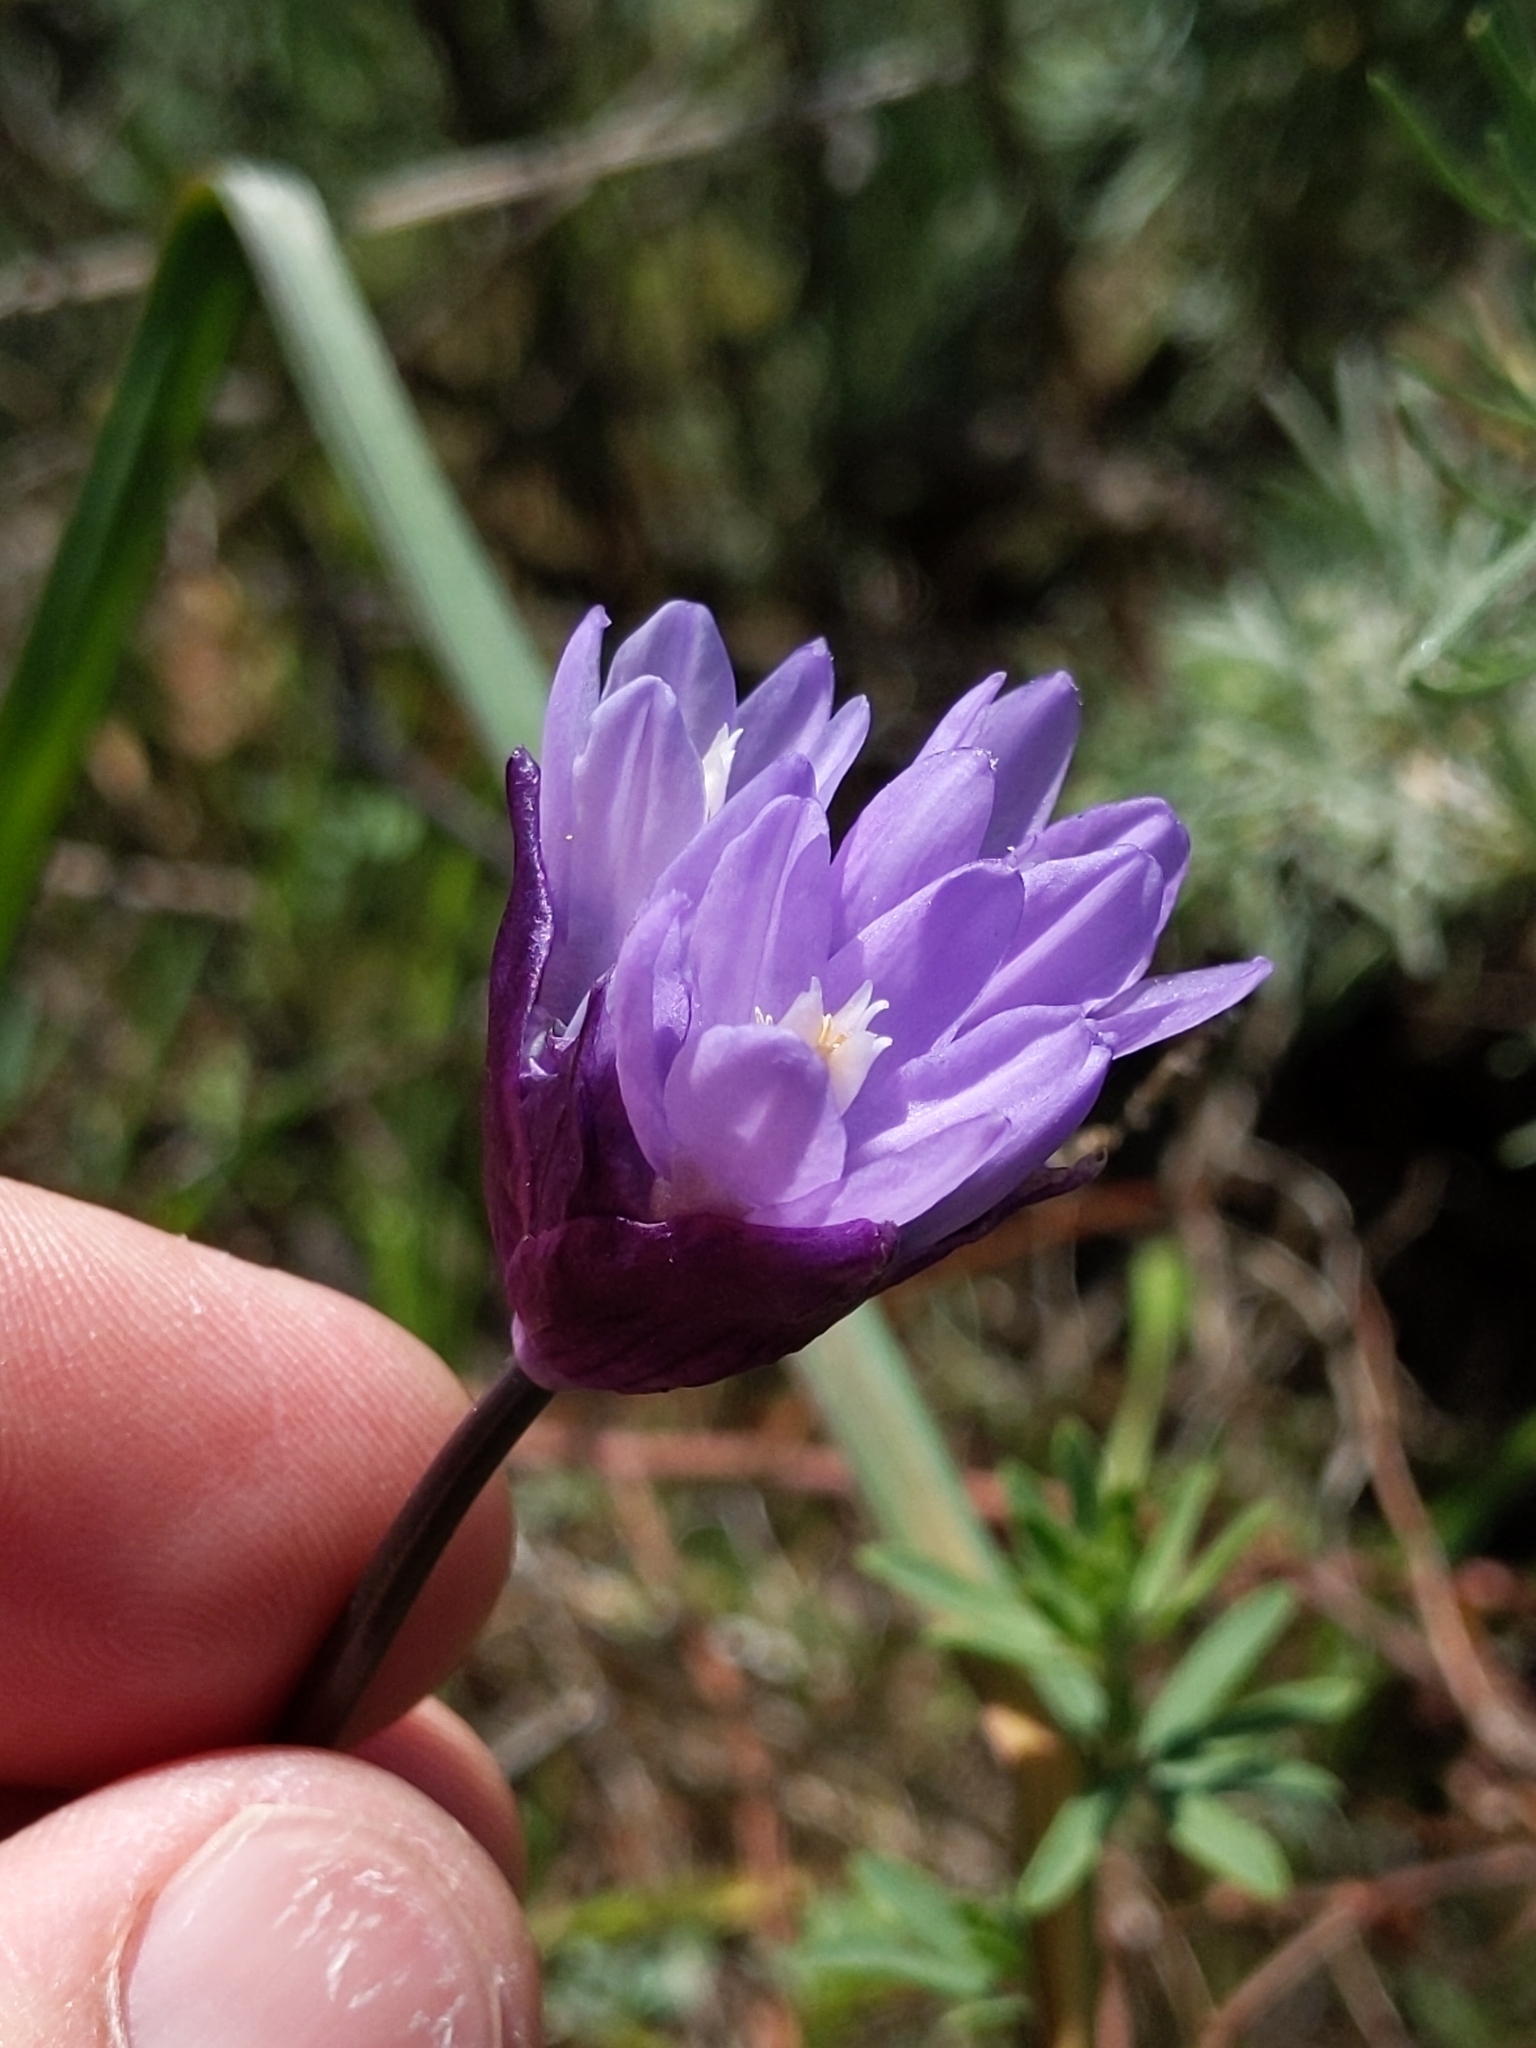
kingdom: Plantae
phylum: Tracheophyta
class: Liliopsida
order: Asparagales
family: Asparagaceae
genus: Dipterostemon
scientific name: Dipterostemon capitatus
